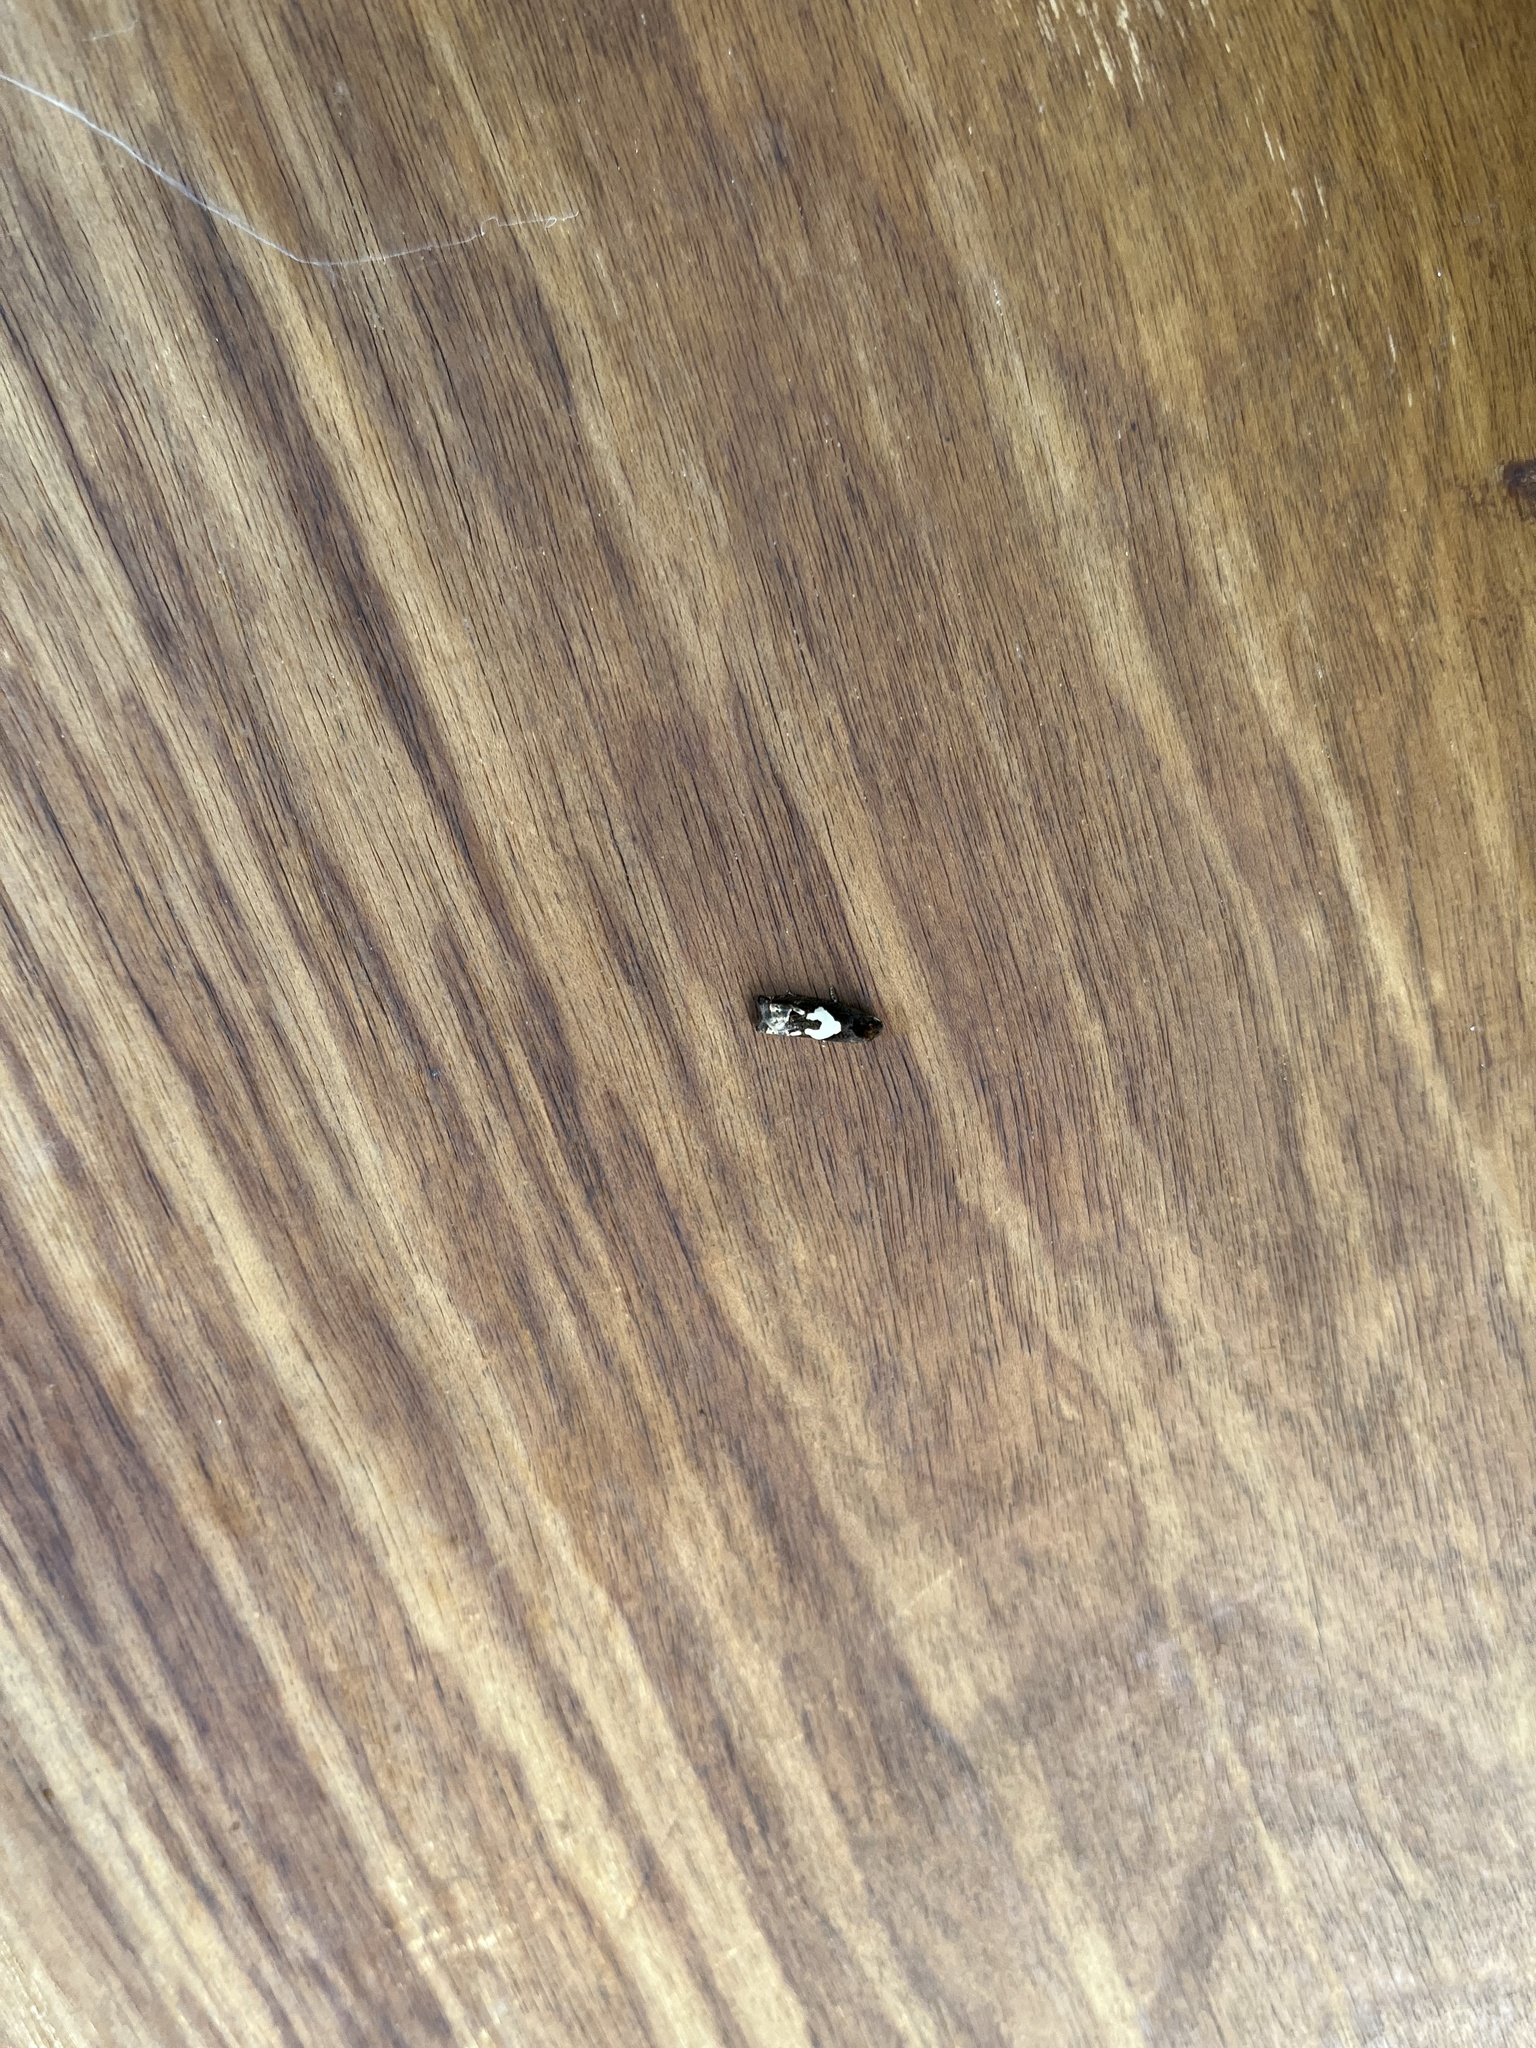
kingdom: Animalia
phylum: Arthropoda
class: Insecta
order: Lepidoptera
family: Tortricidae
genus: Epiblema
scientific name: Epiblema otiosana
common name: Bidens borer moth
